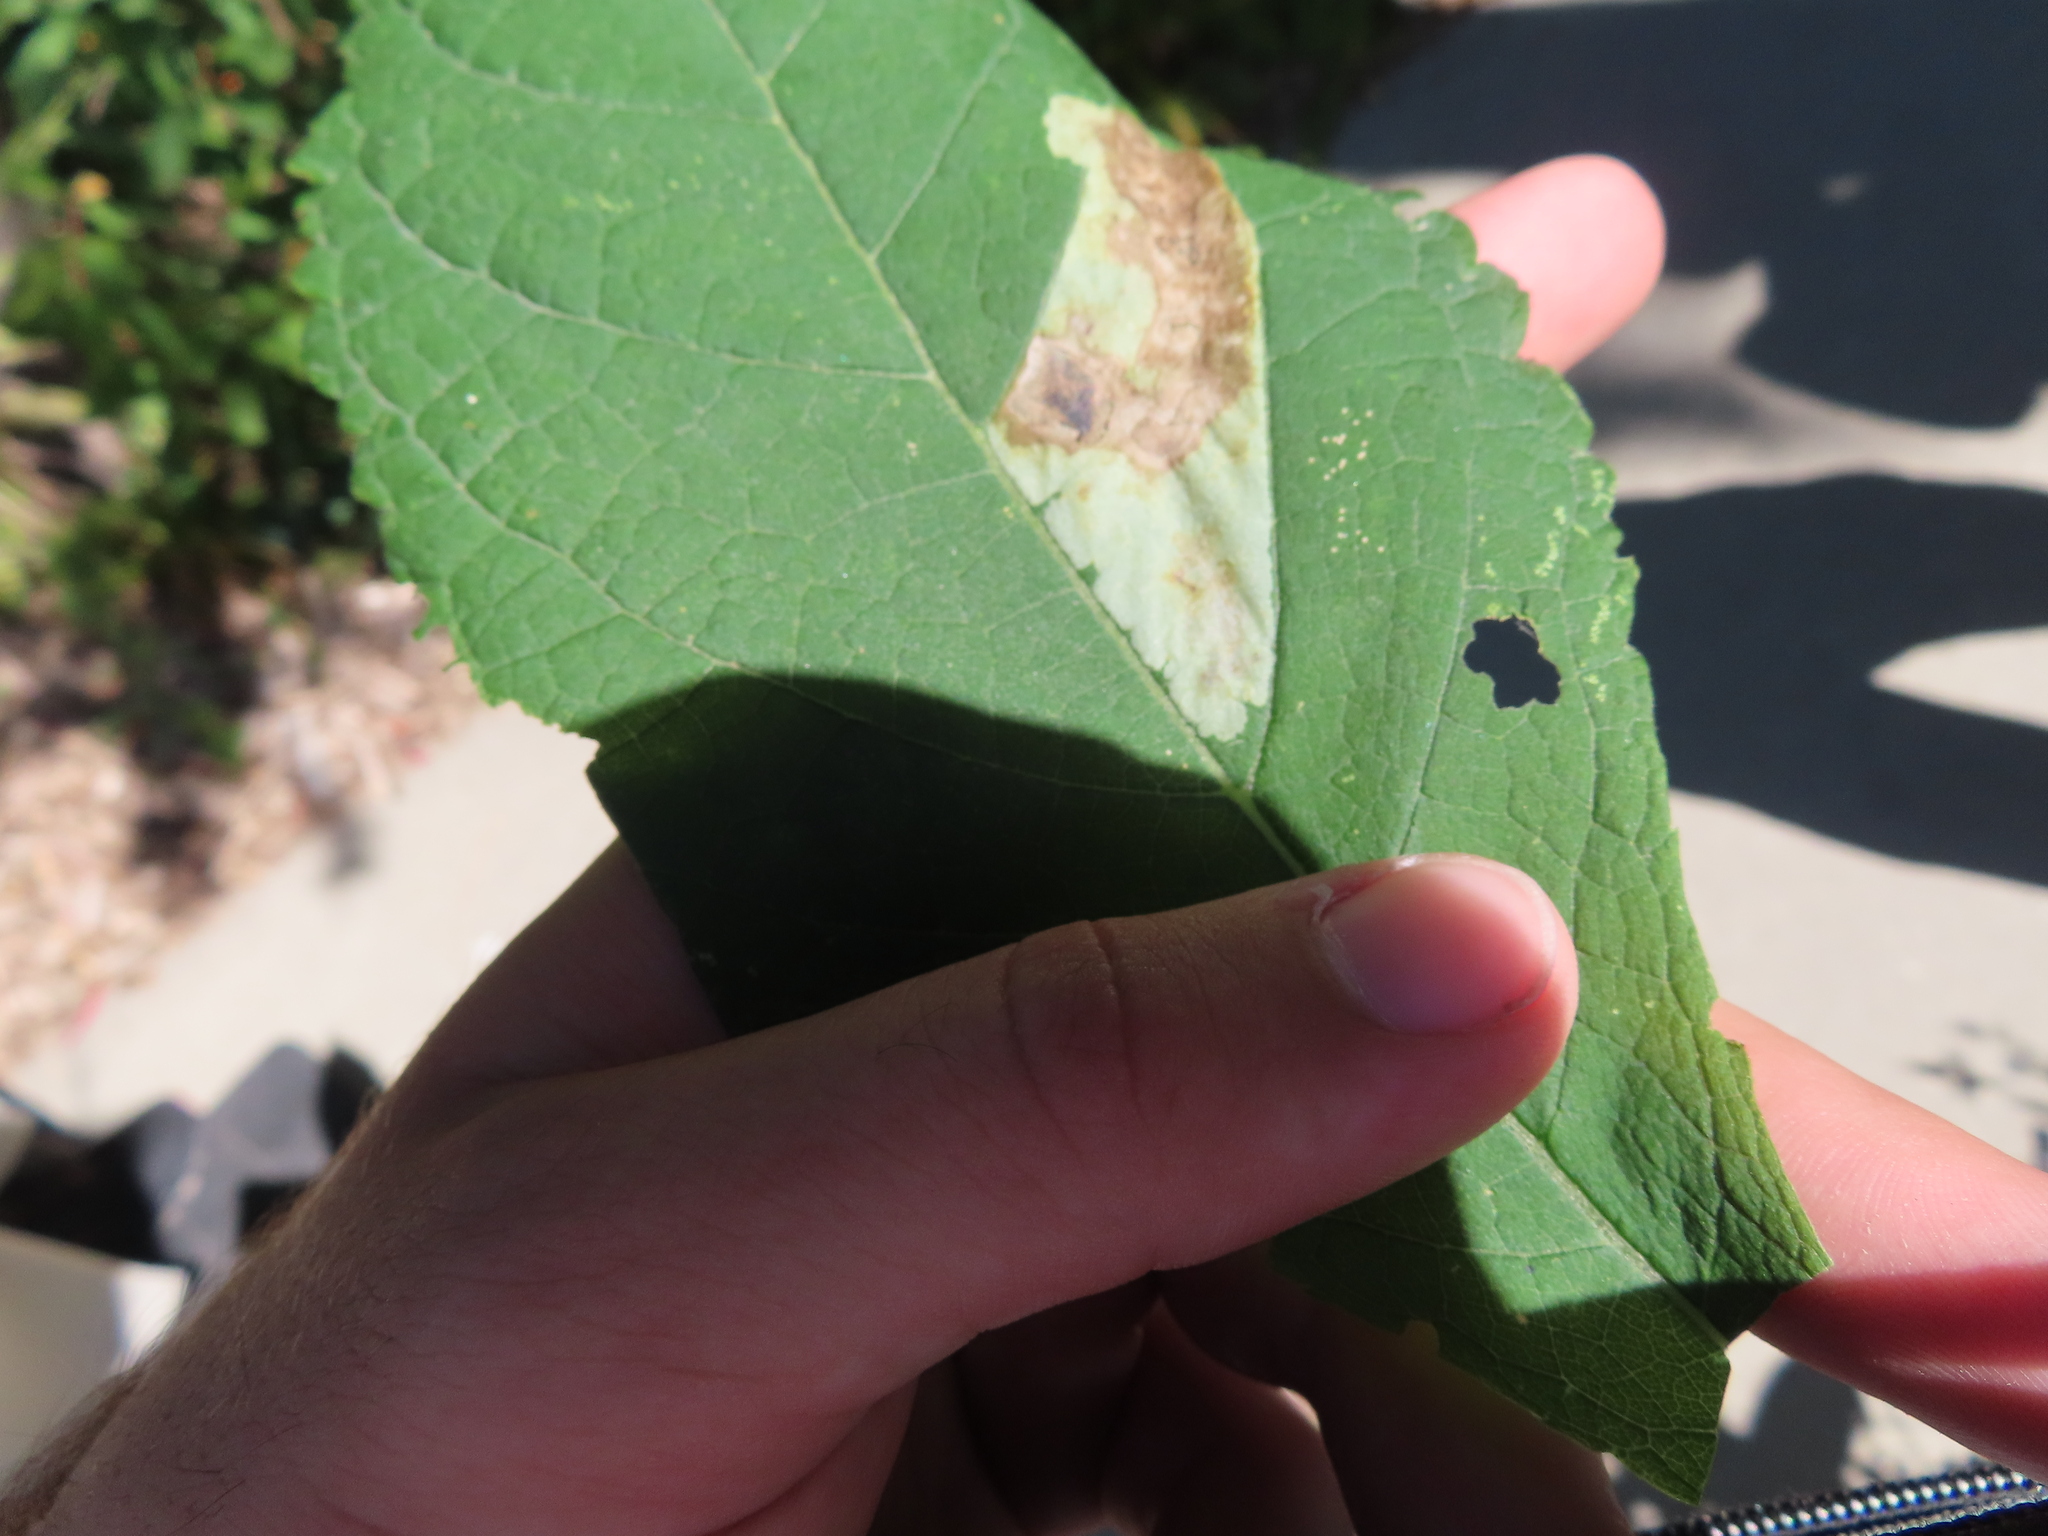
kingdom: Animalia
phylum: Arthropoda
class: Insecta
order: Diptera
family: Agromyzidae
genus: Calycomyza
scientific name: Calycomyza flavinotum
